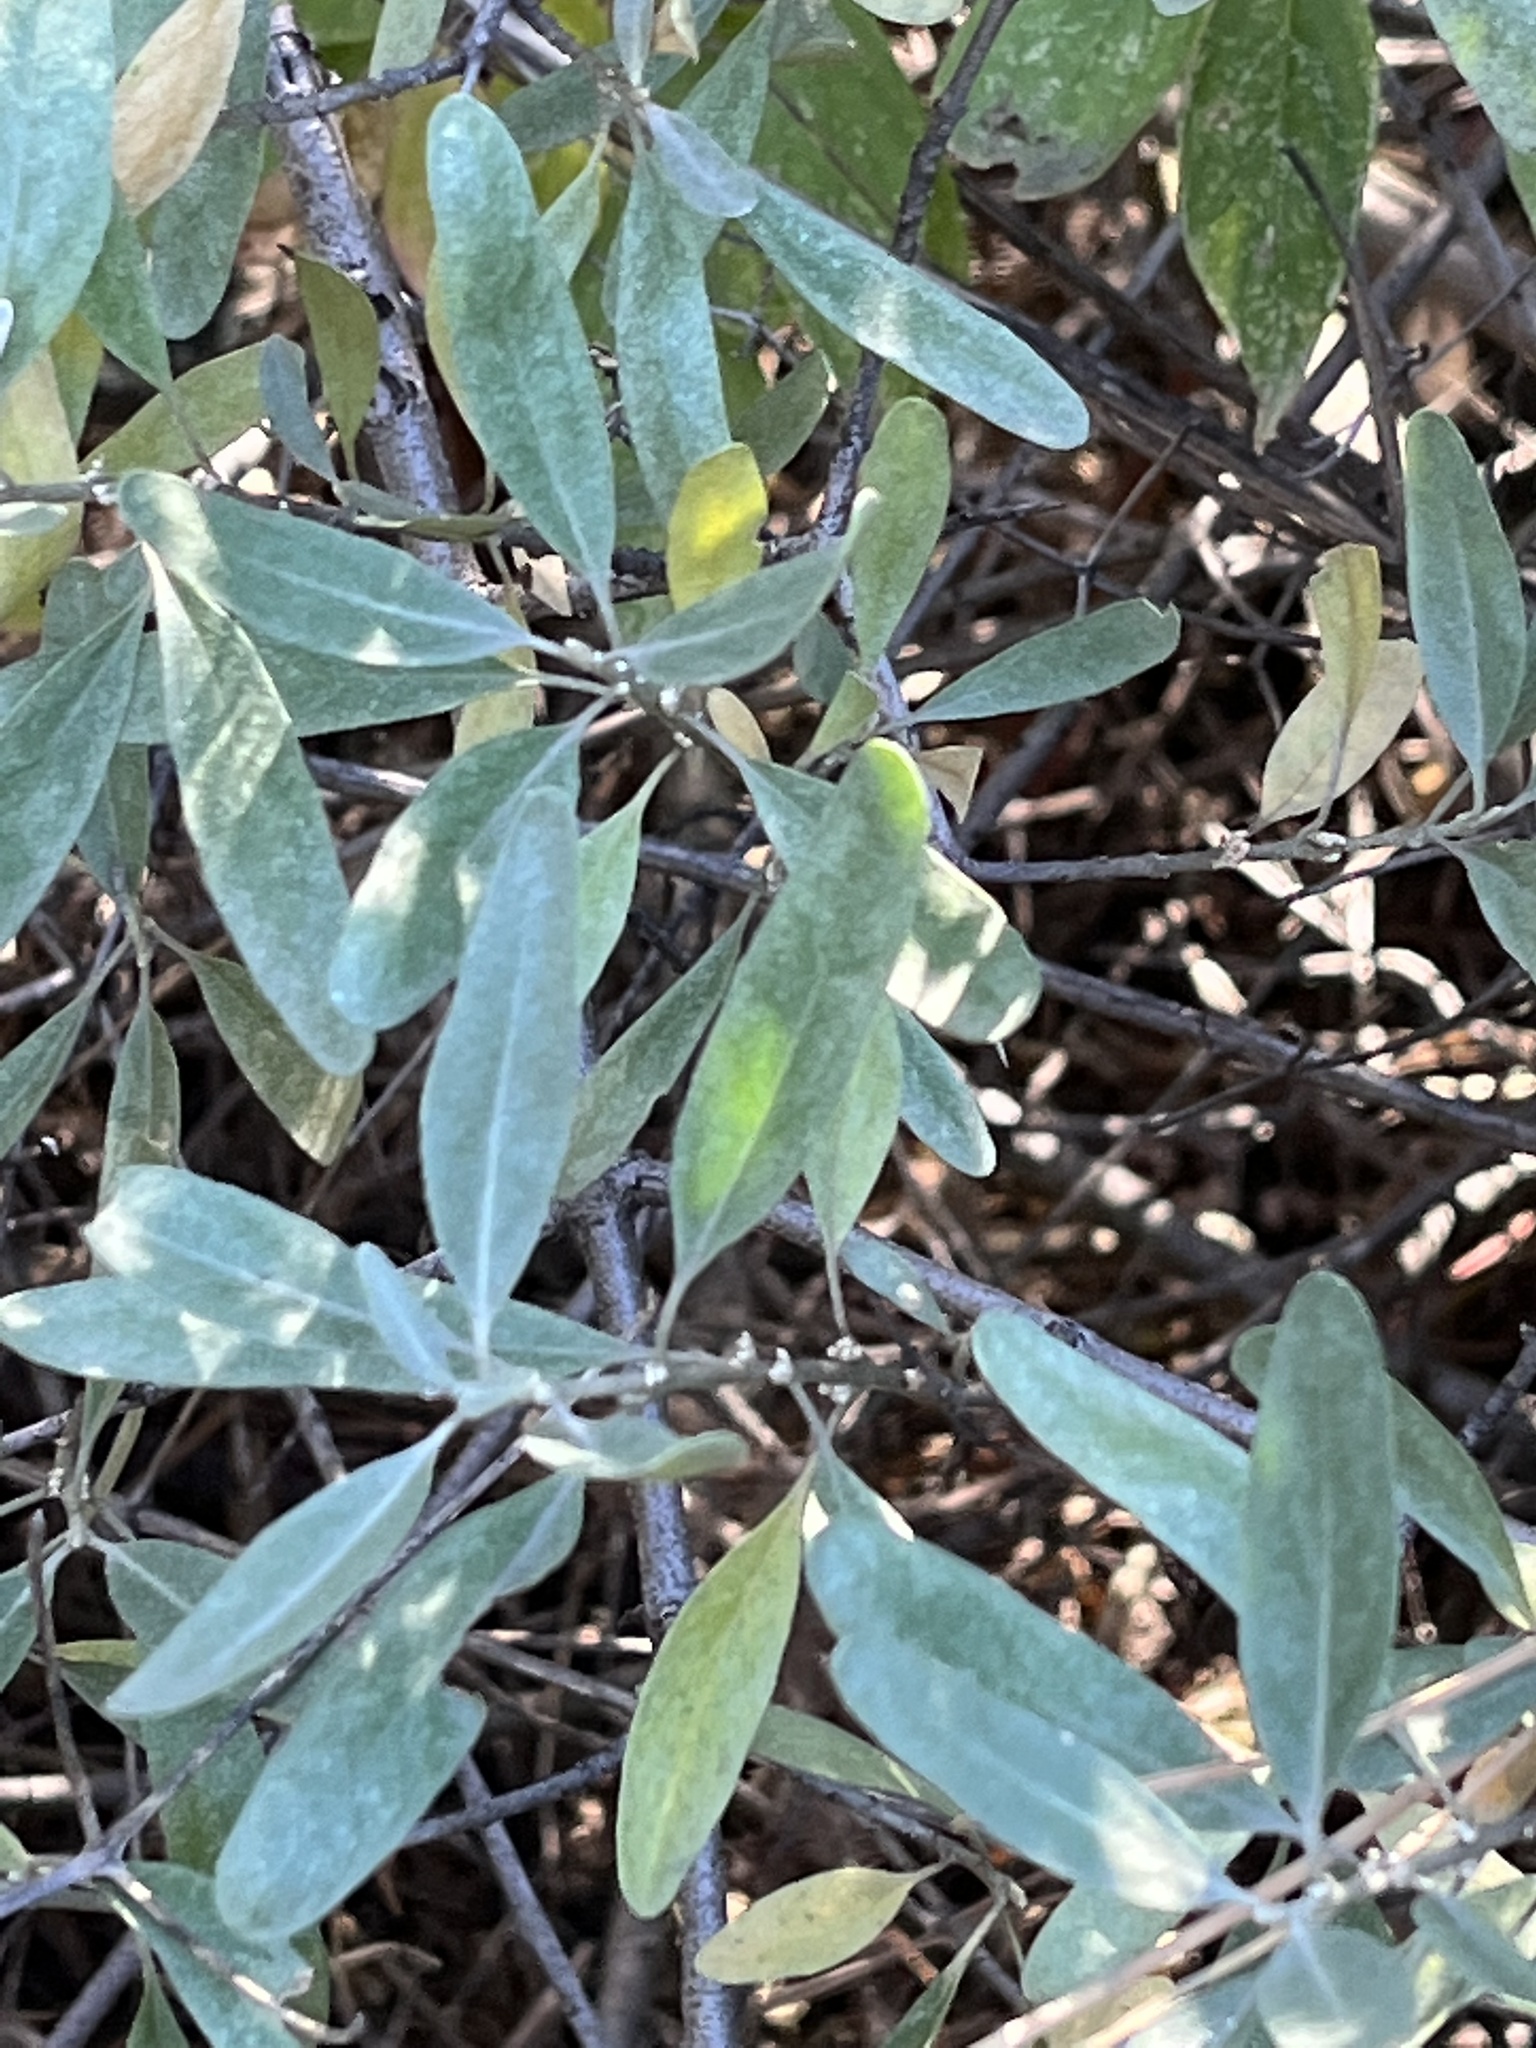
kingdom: Plantae
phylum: Tracheophyta
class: Magnoliopsida
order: Rosales
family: Elaeagnaceae
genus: Shepherdia
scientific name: Shepherdia argentea
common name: Silver buffaloberry
